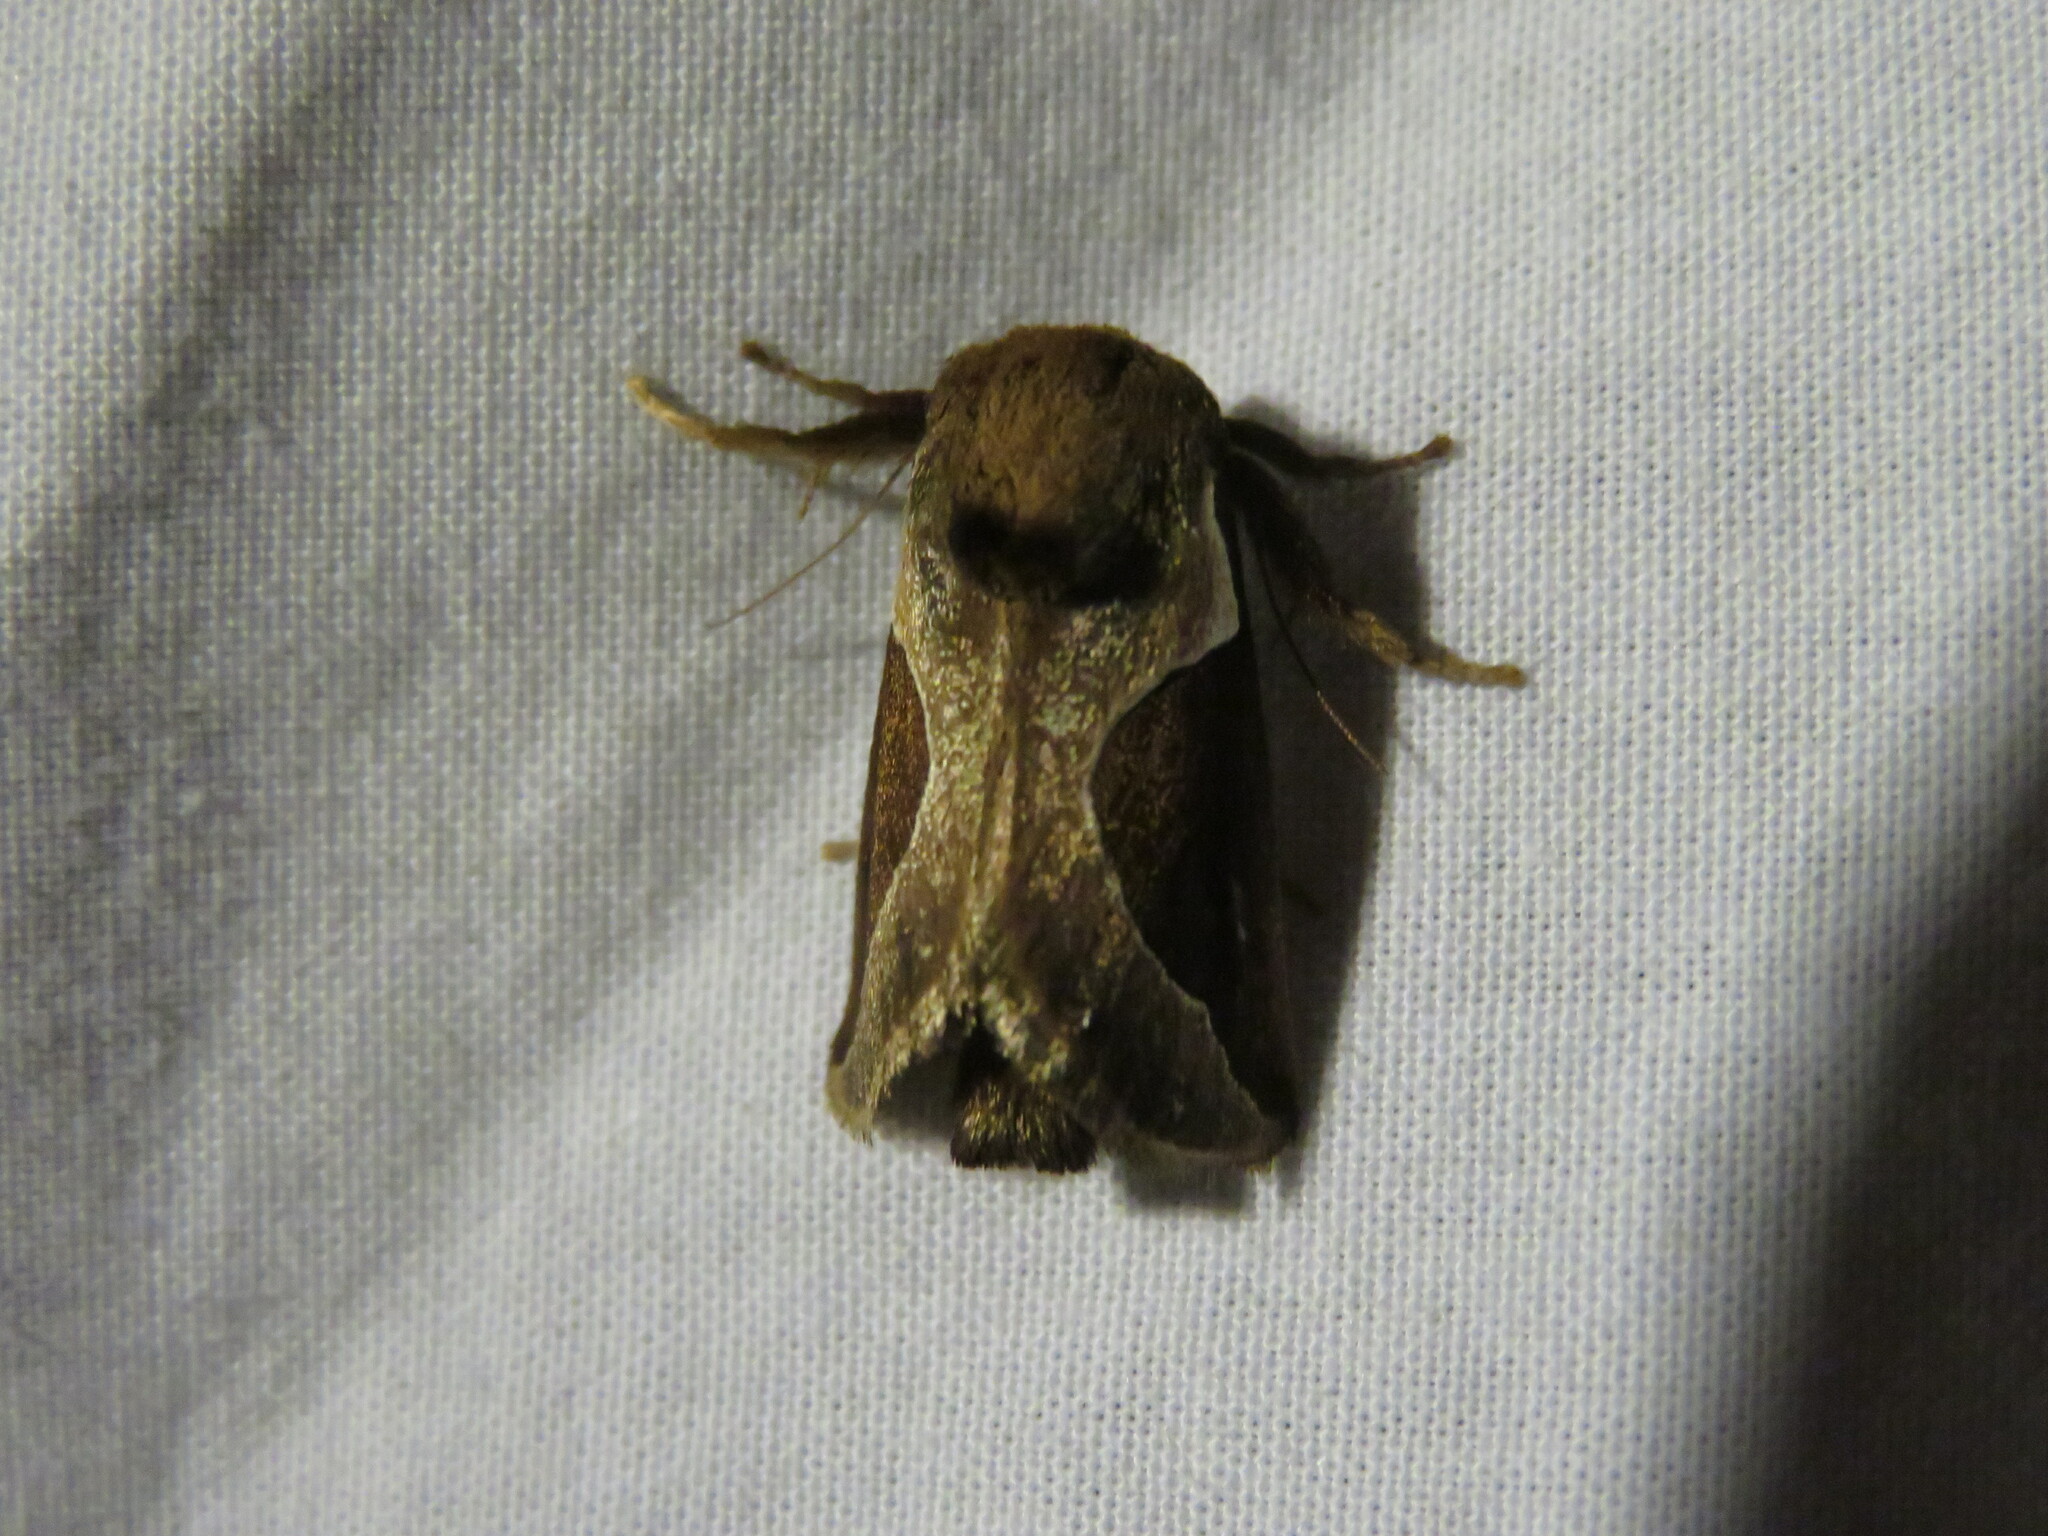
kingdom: Animalia
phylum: Arthropoda
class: Insecta
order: Lepidoptera
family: Limacodidae
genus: Prolimacodes
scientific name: Prolimacodes badia
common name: Skiff moth
